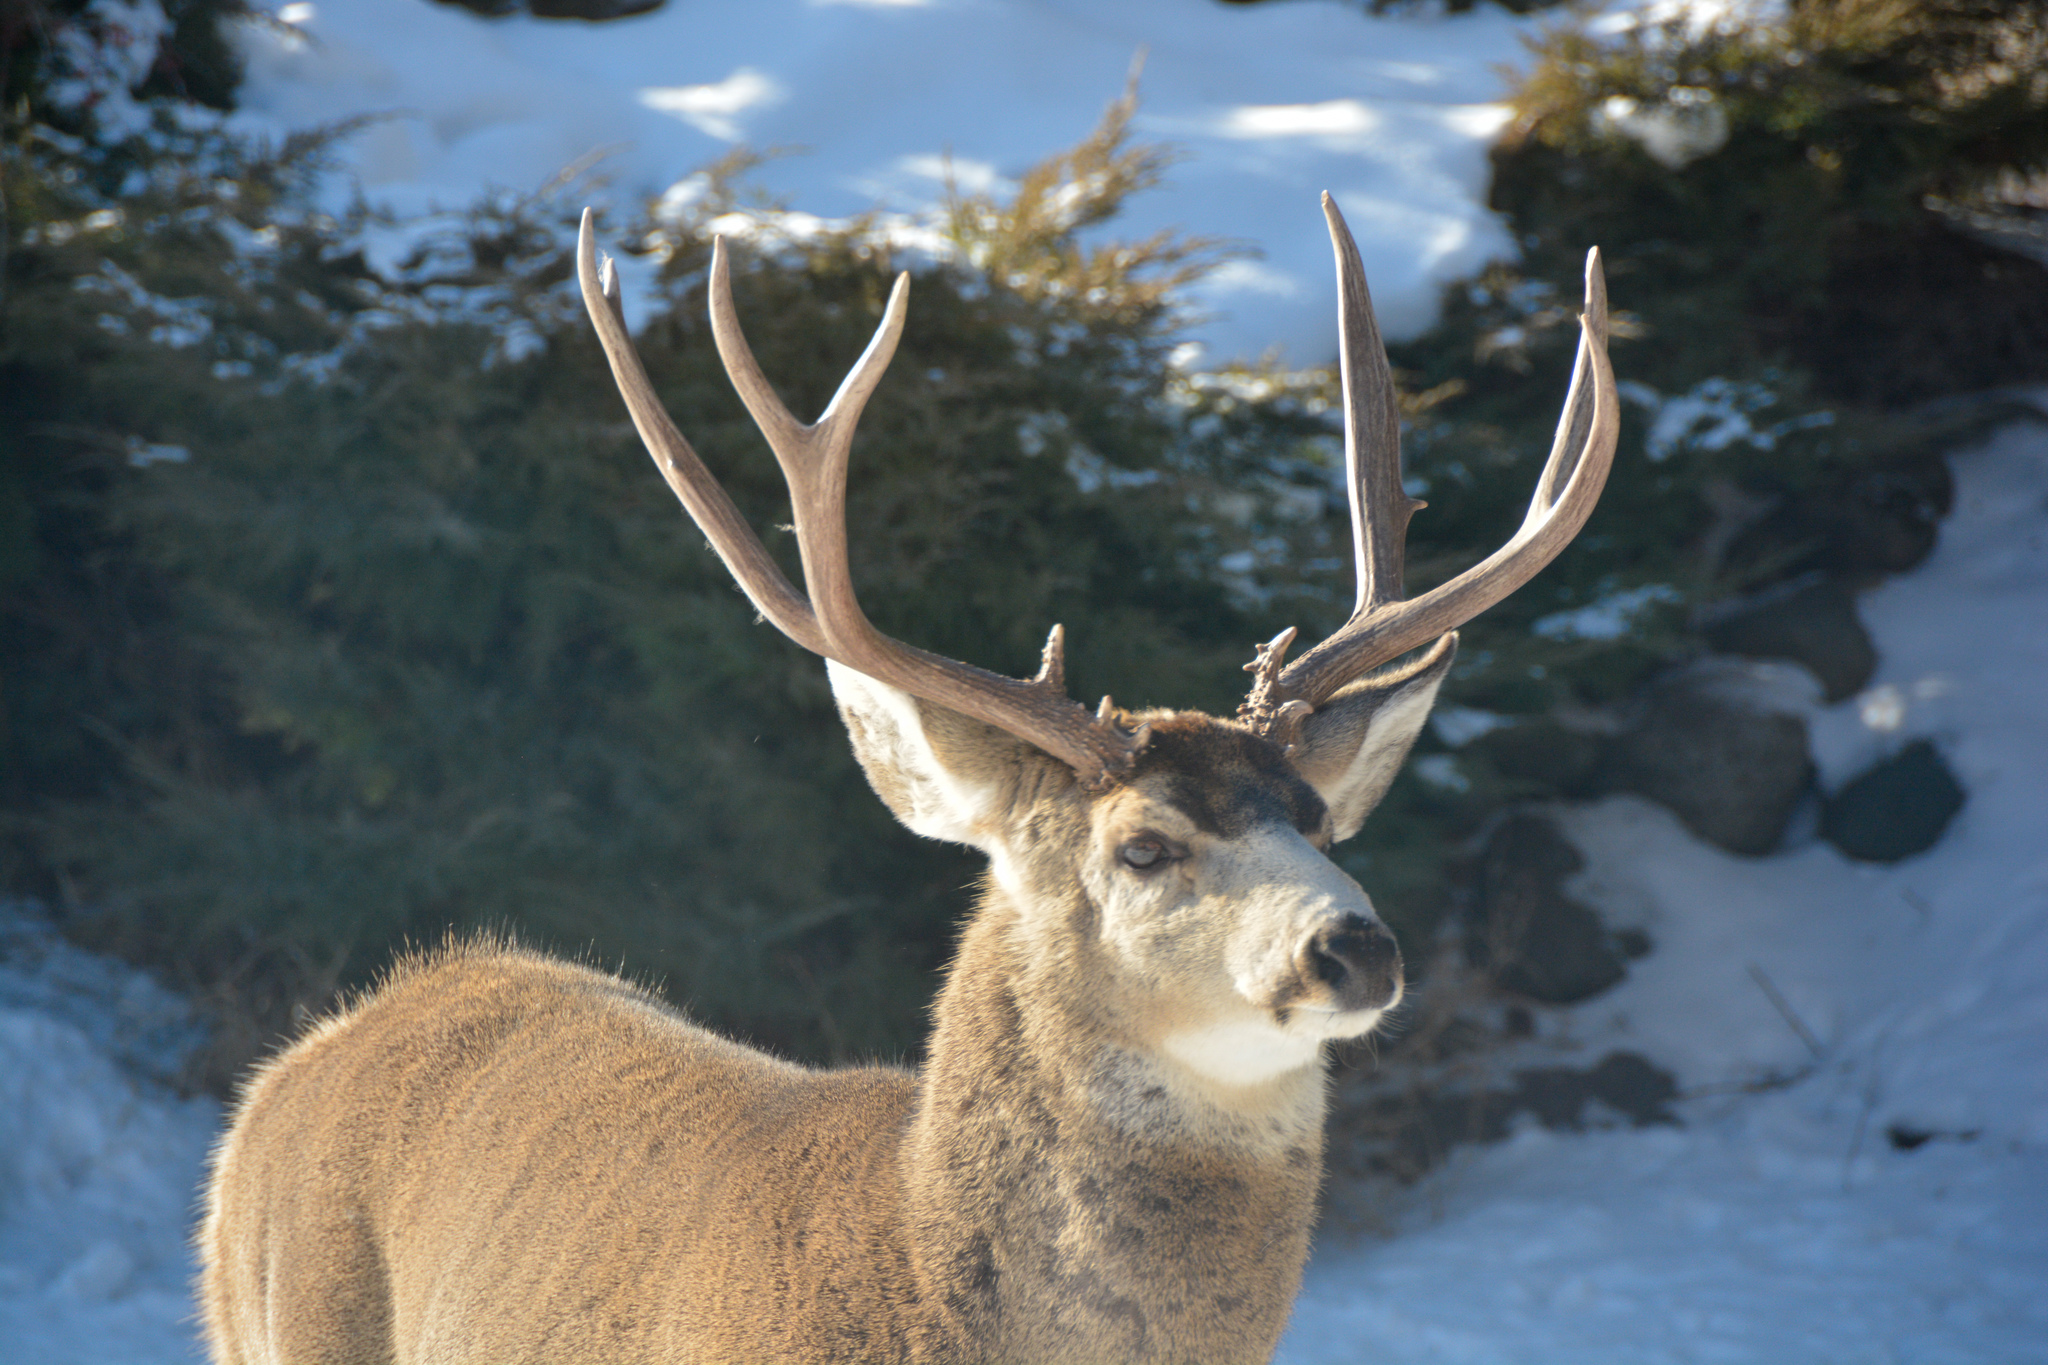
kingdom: Animalia
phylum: Chordata
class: Mammalia
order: Artiodactyla
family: Cervidae
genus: Odocoileus
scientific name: Odocoileus hemionus
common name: Mule deer
